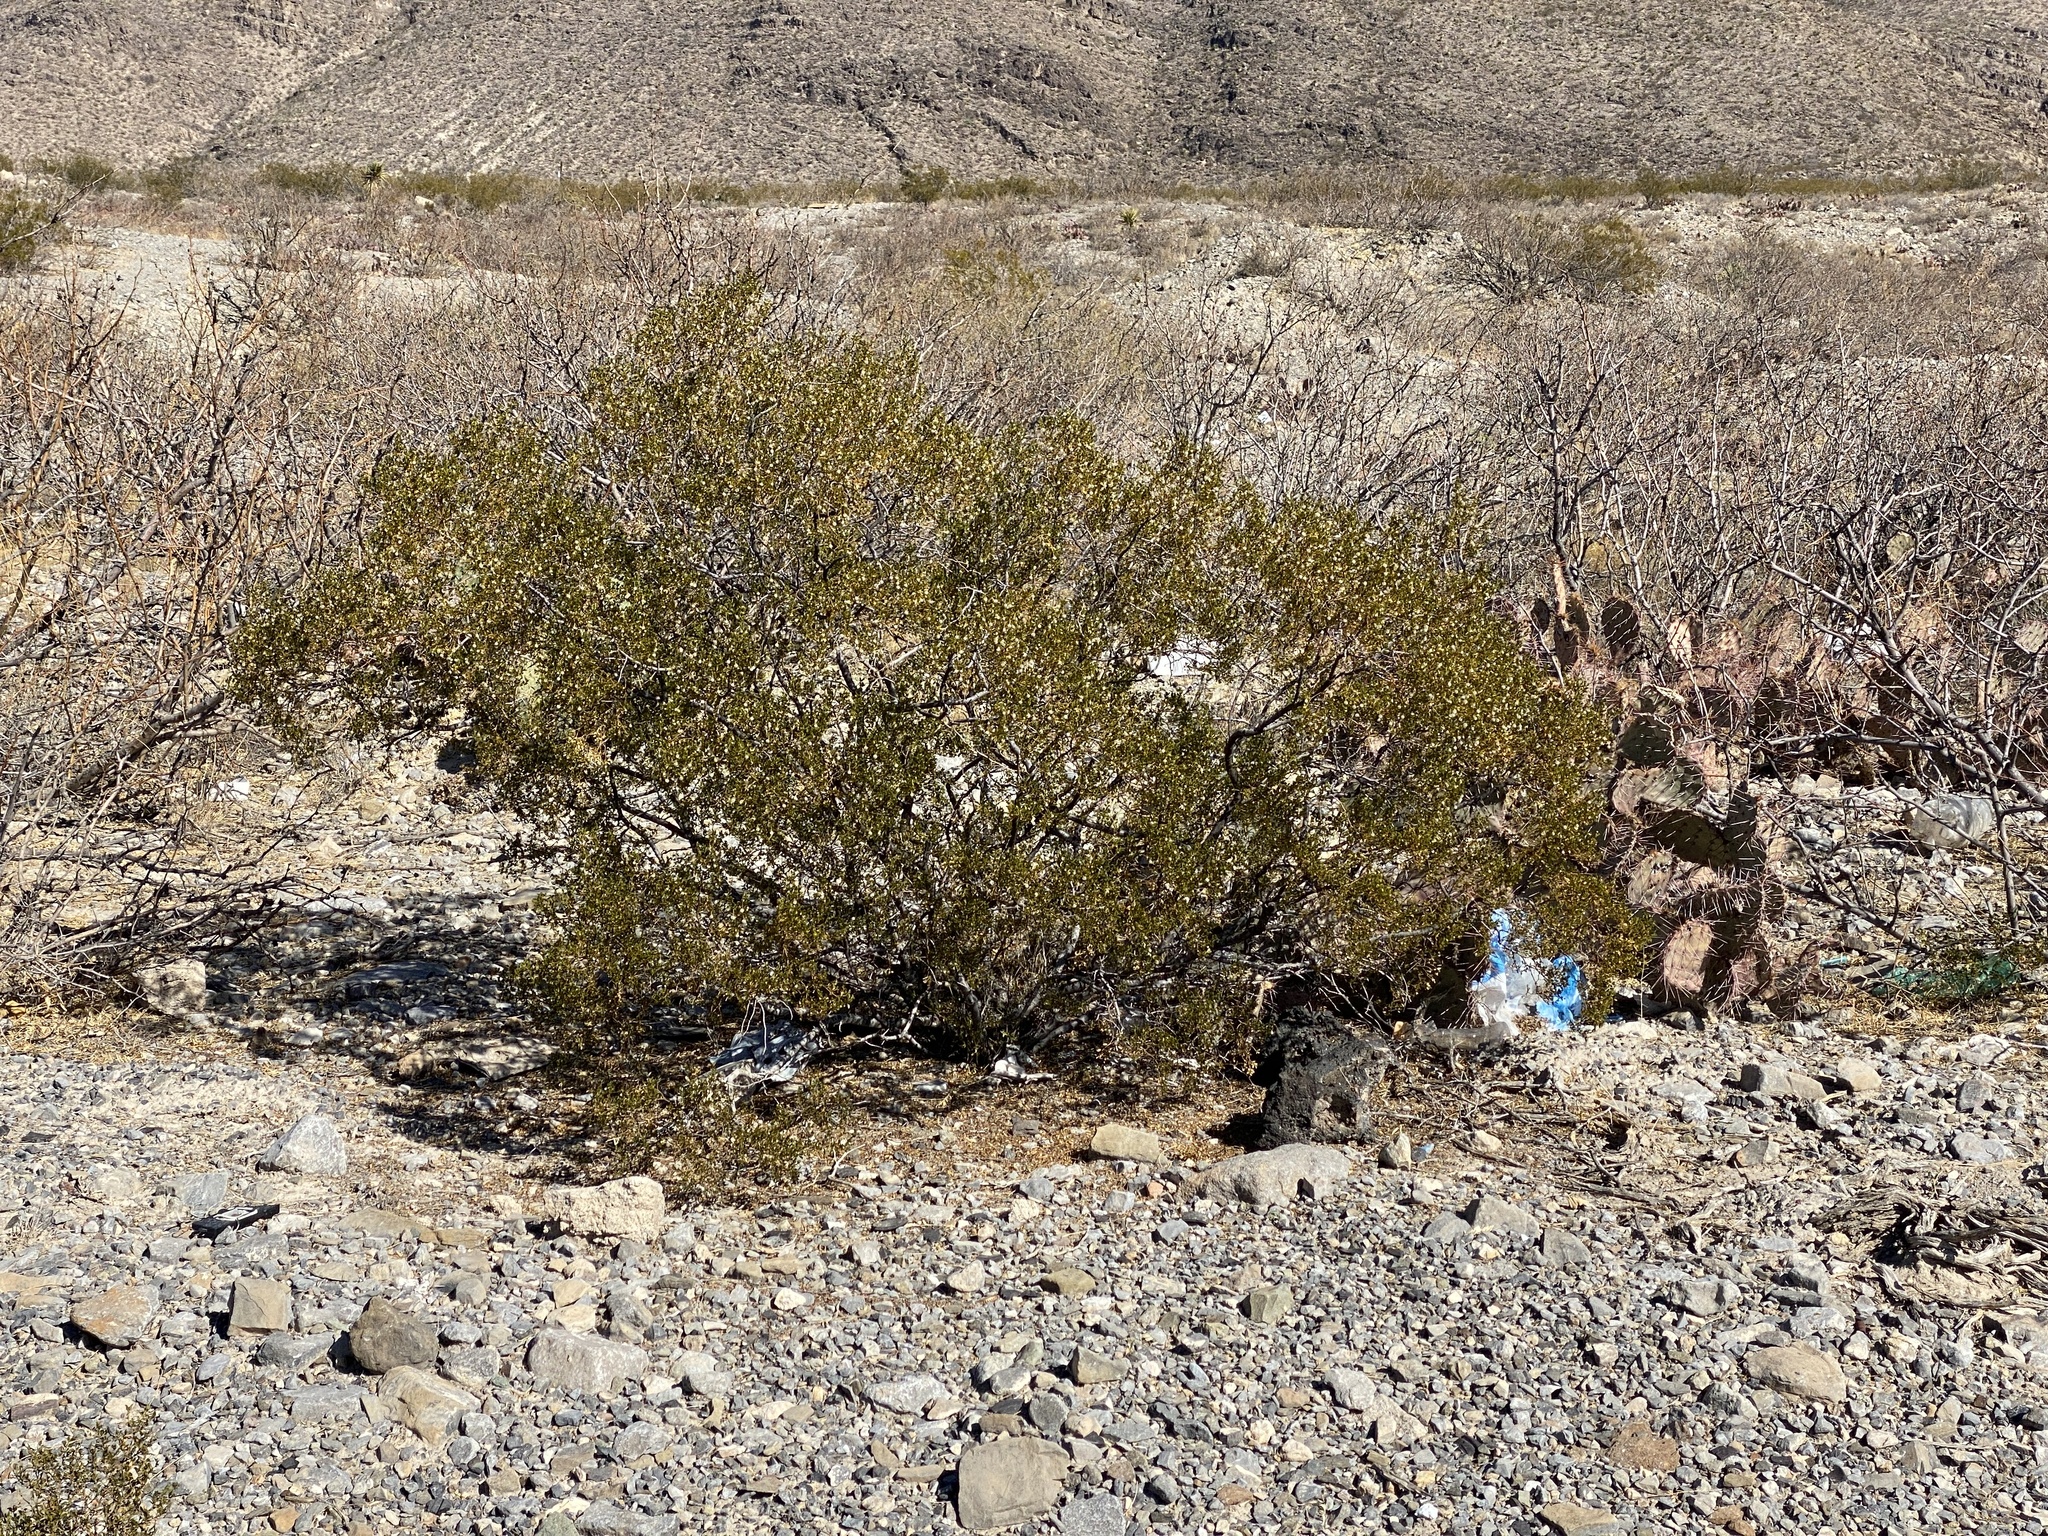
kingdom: Plantae
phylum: Tracheophyta
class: Magnoliopsida
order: Zygophyllales
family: Zygophyllaceae
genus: Larrea
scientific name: Larrea tridentata
